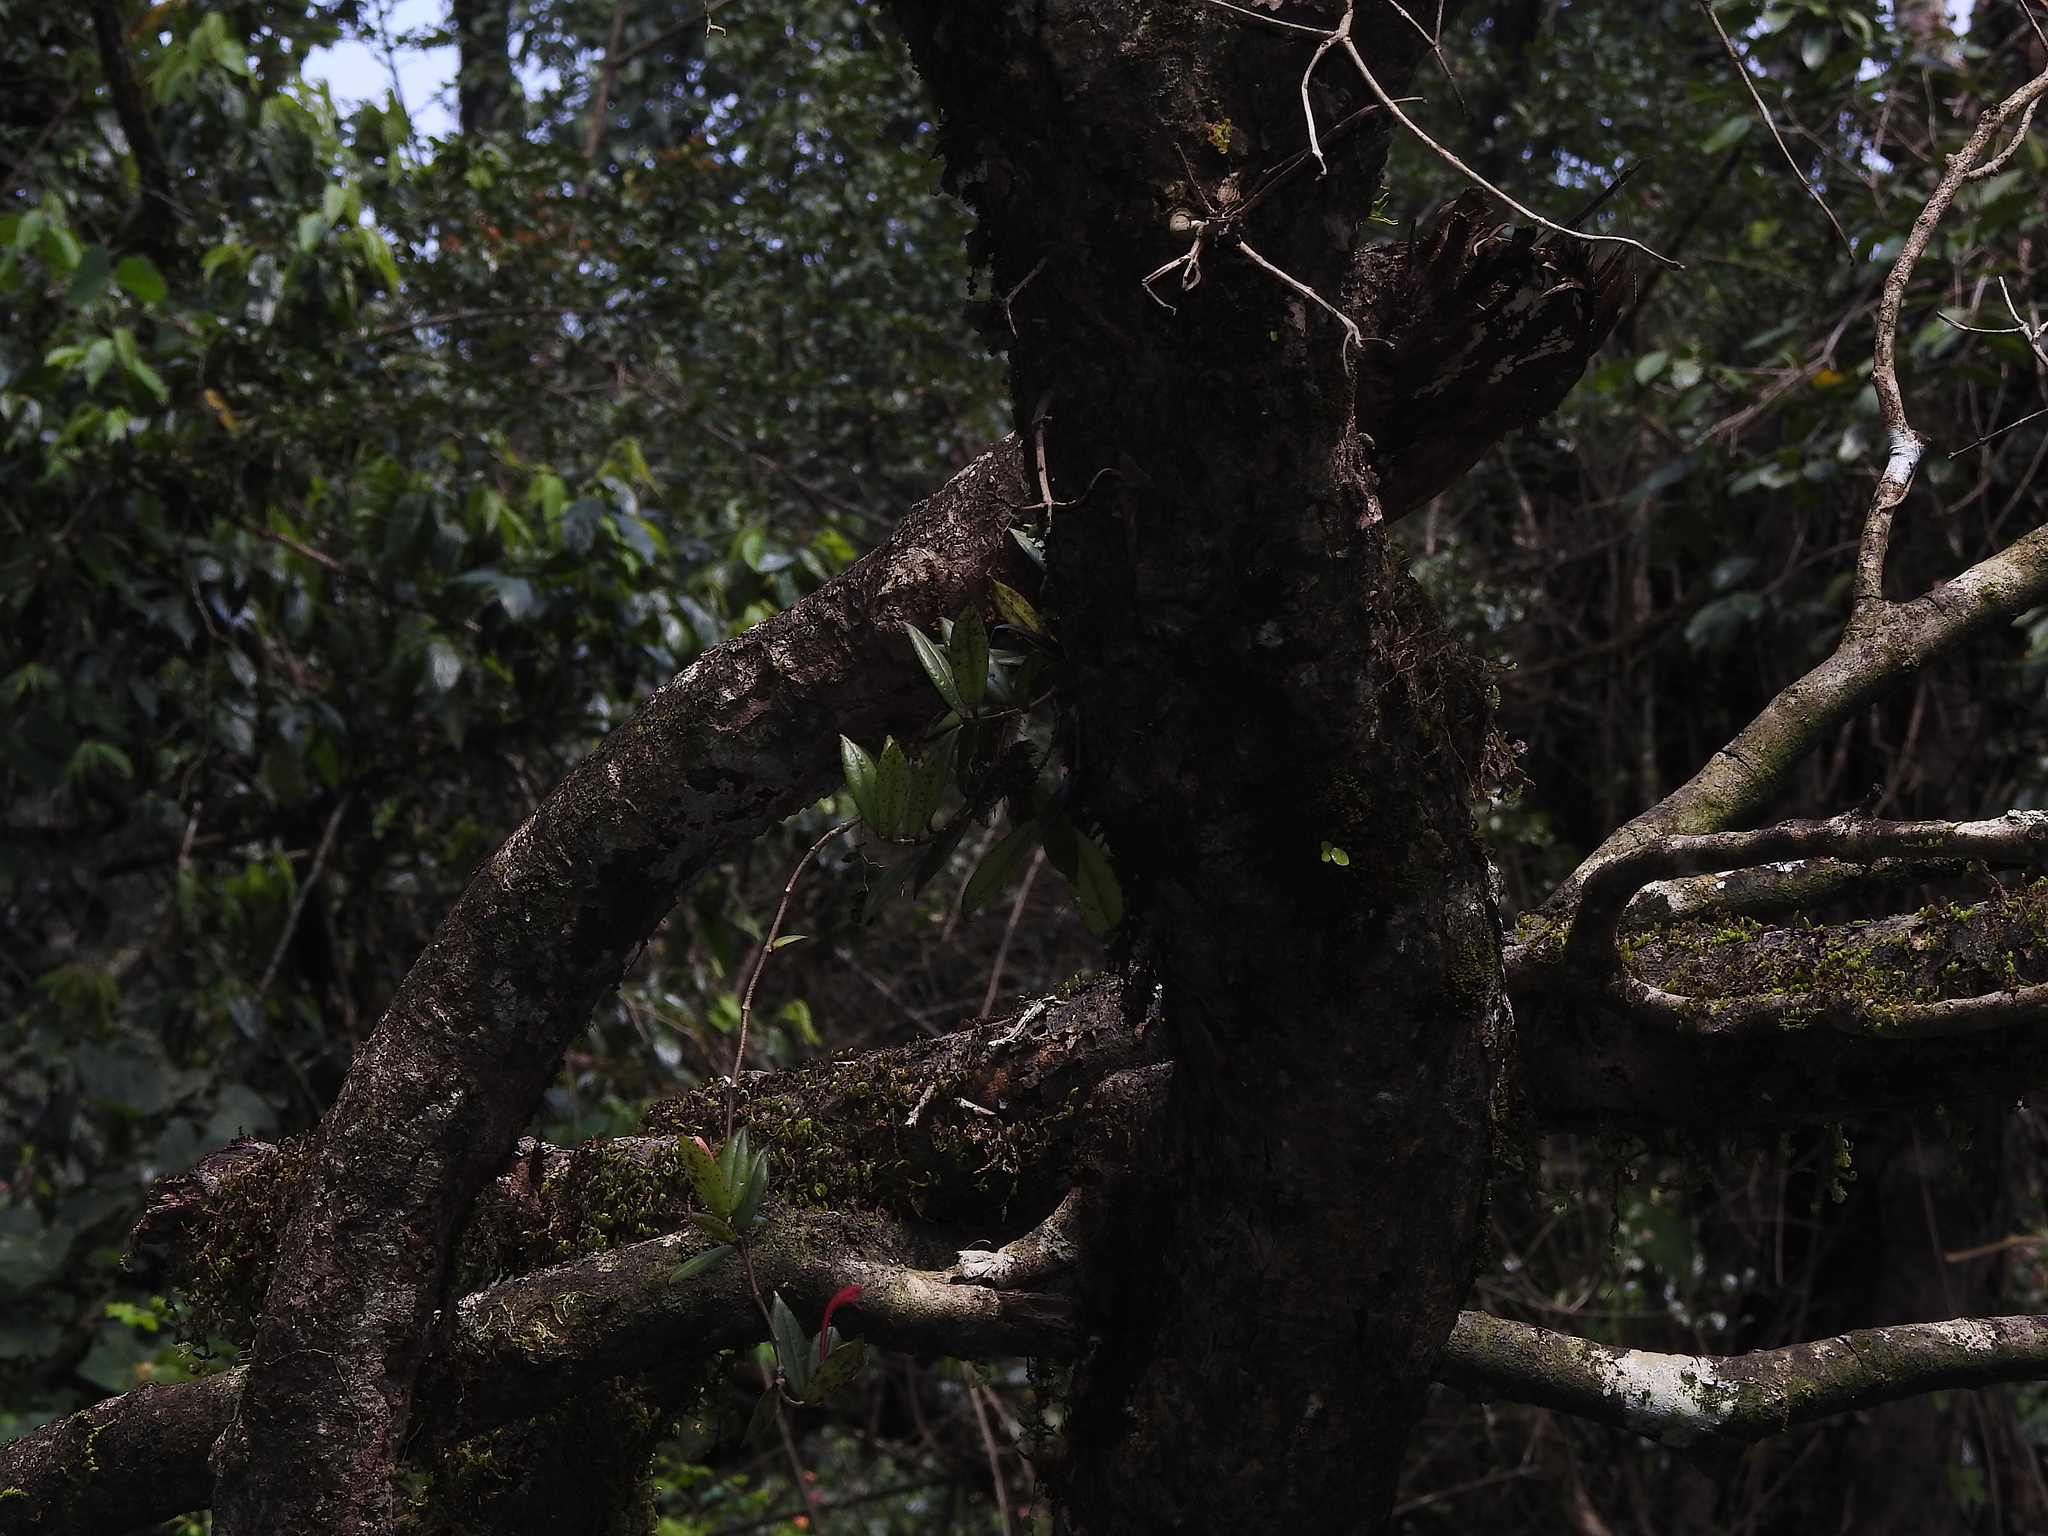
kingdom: Plantae
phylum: Tracheophyta
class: Magnoliopsida
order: Lamiales
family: Gesneriaceae
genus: Aeschynanthus
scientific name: Aeschynanthus perrottetii
